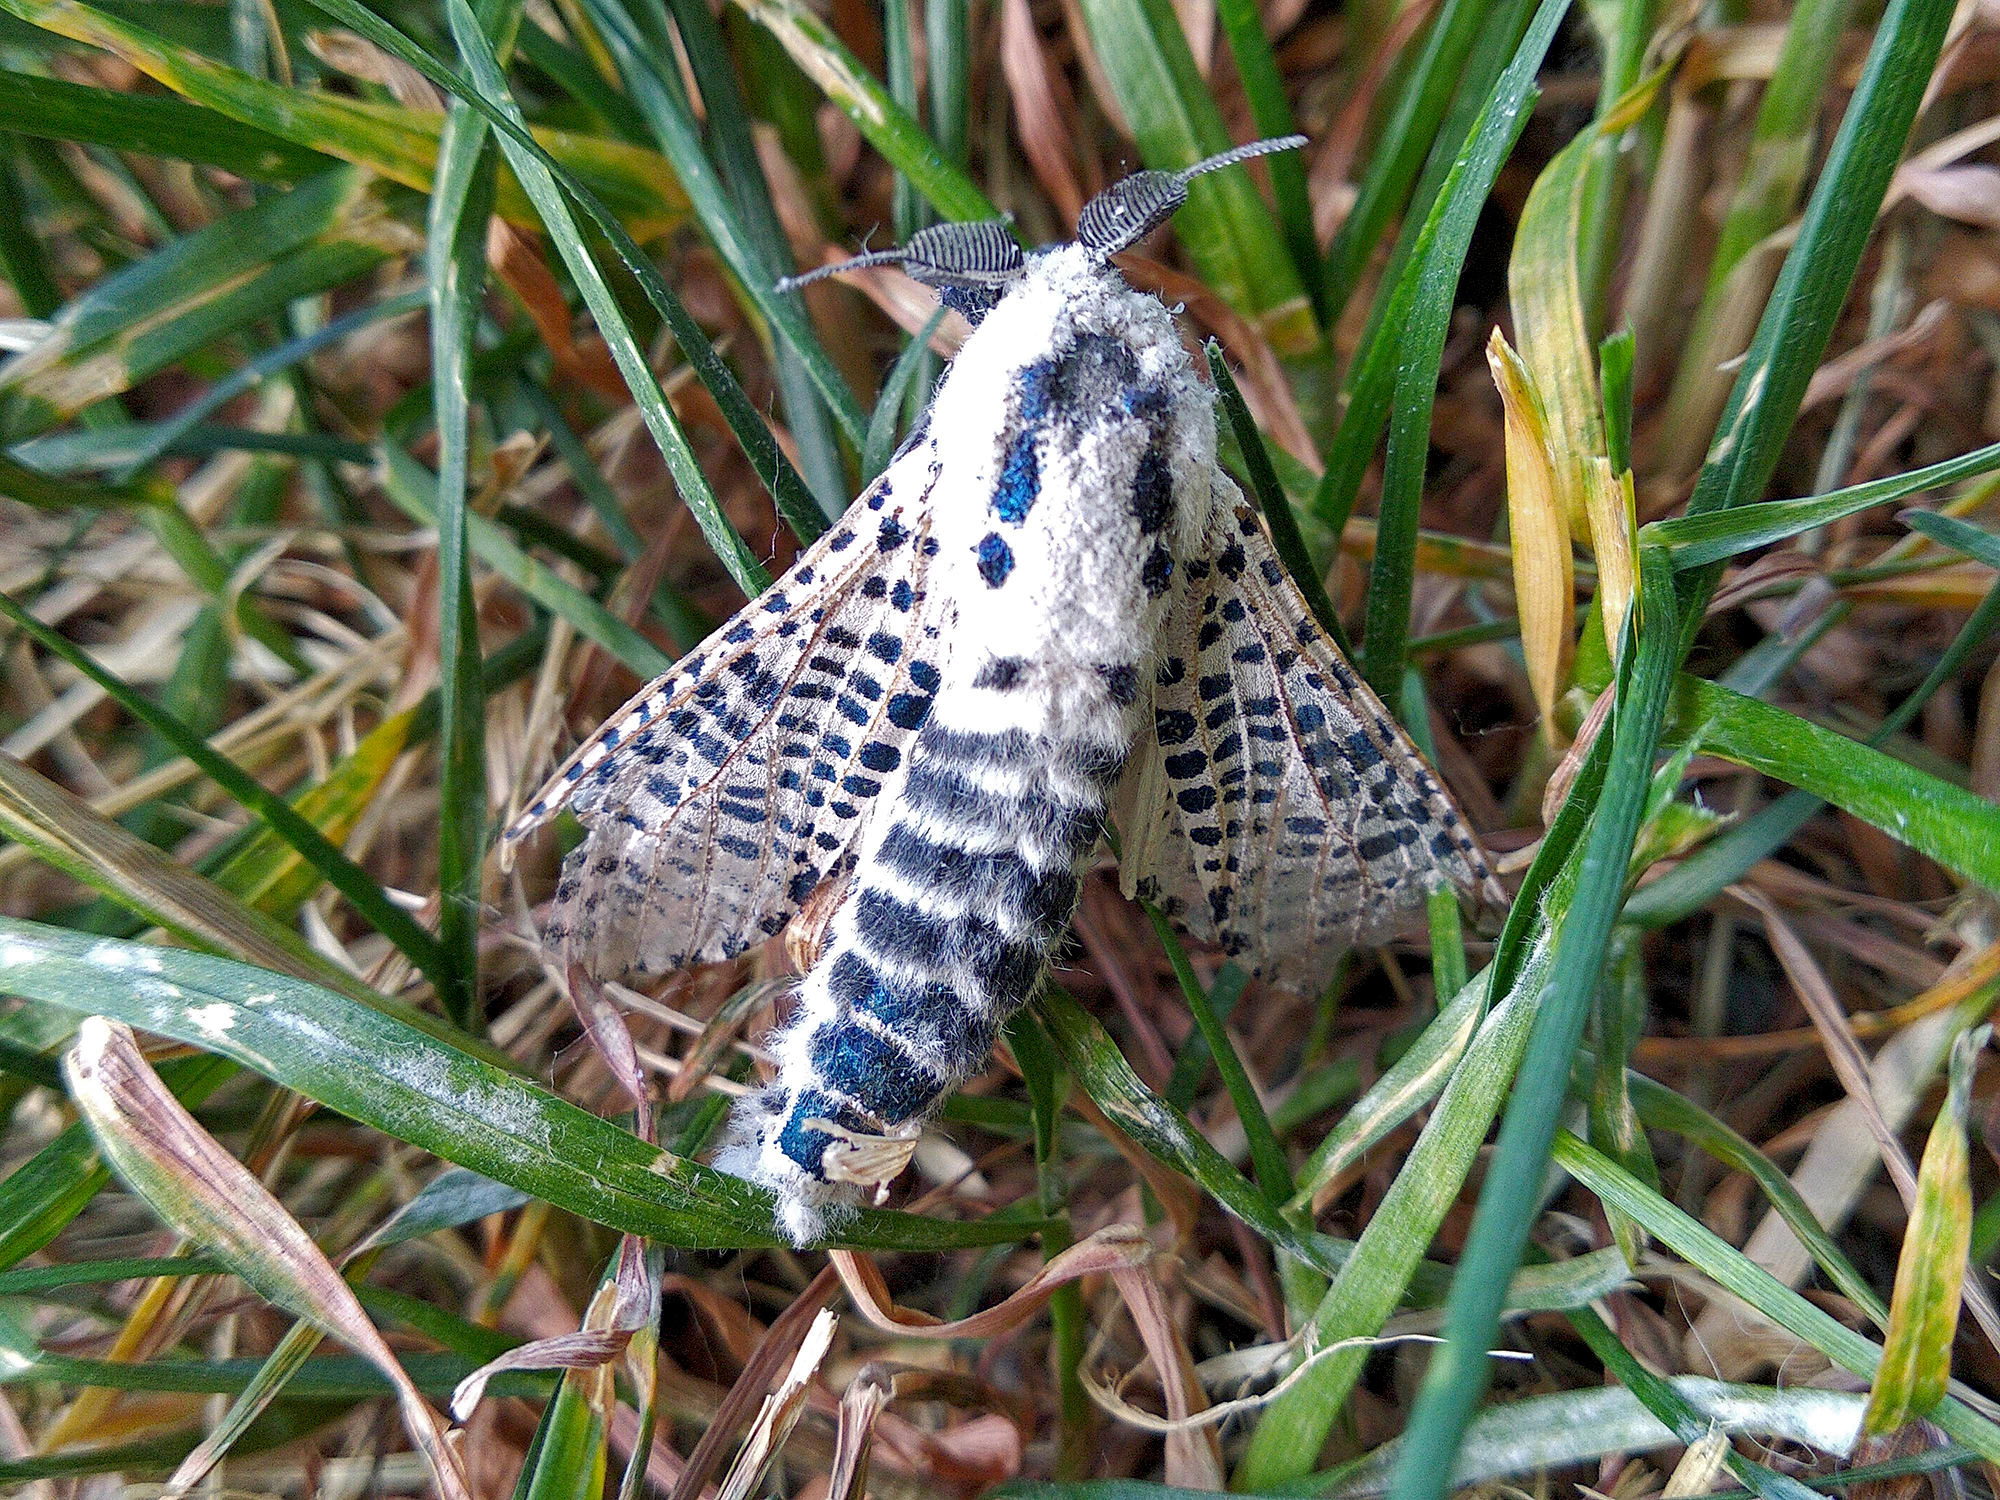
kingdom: Animalia
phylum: Arthropoda
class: Insecta
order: Lepidoptera
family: Cossidae
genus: Zeuzera
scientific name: Zeuzera pyrina
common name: Leopard moth
